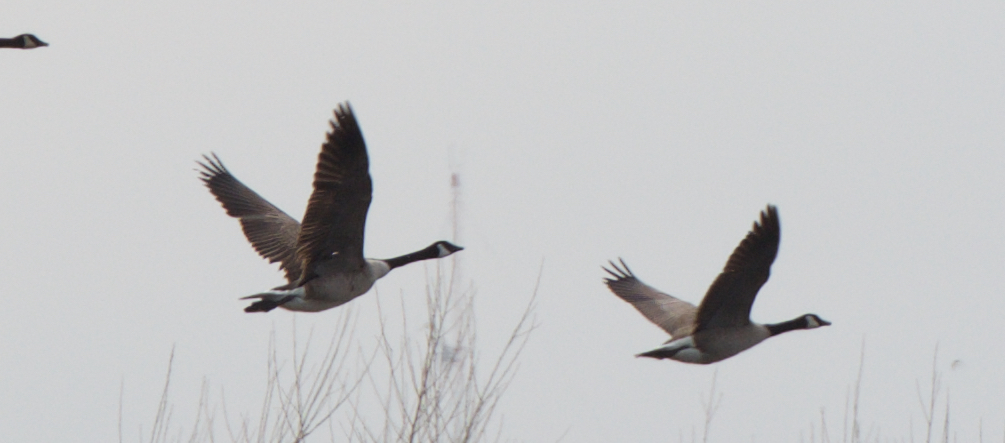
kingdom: Animalia
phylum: Chordata
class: Aves
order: Anseriformes
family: Anatidae
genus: Branta
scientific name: Branta canadensis
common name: Canada goose
